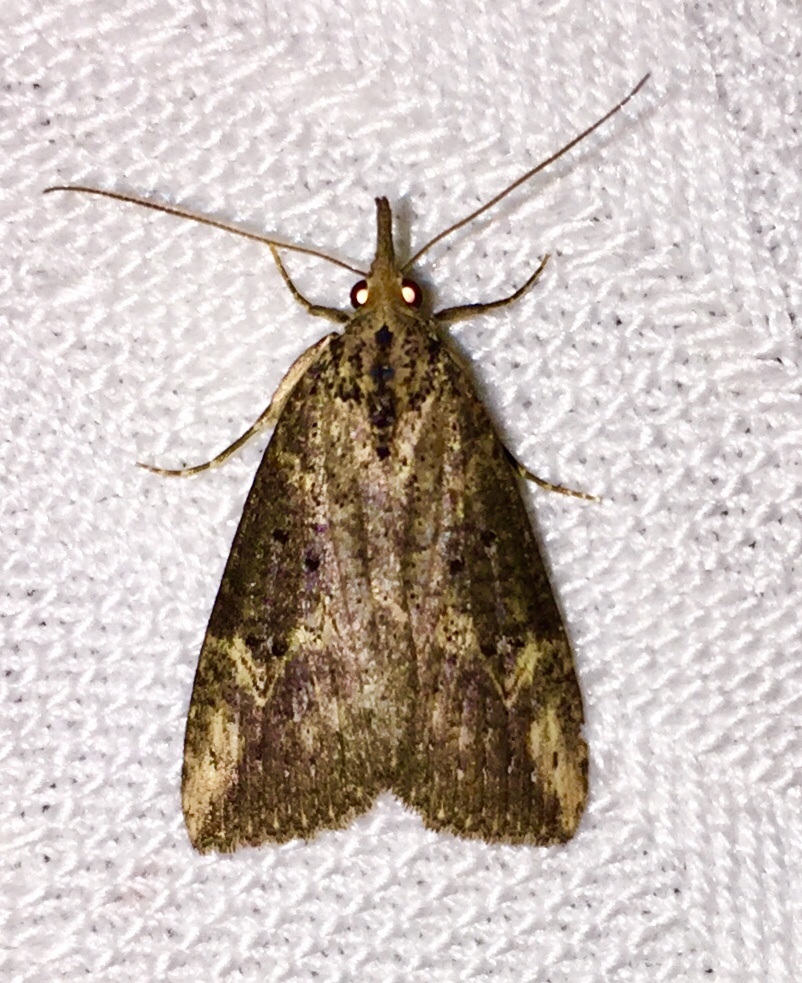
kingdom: Animalia
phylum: Arthropoda
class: Insecta
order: Lepidoptera
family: Erebidae
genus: Hypena
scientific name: Hypena humuli
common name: Hop vine snout
